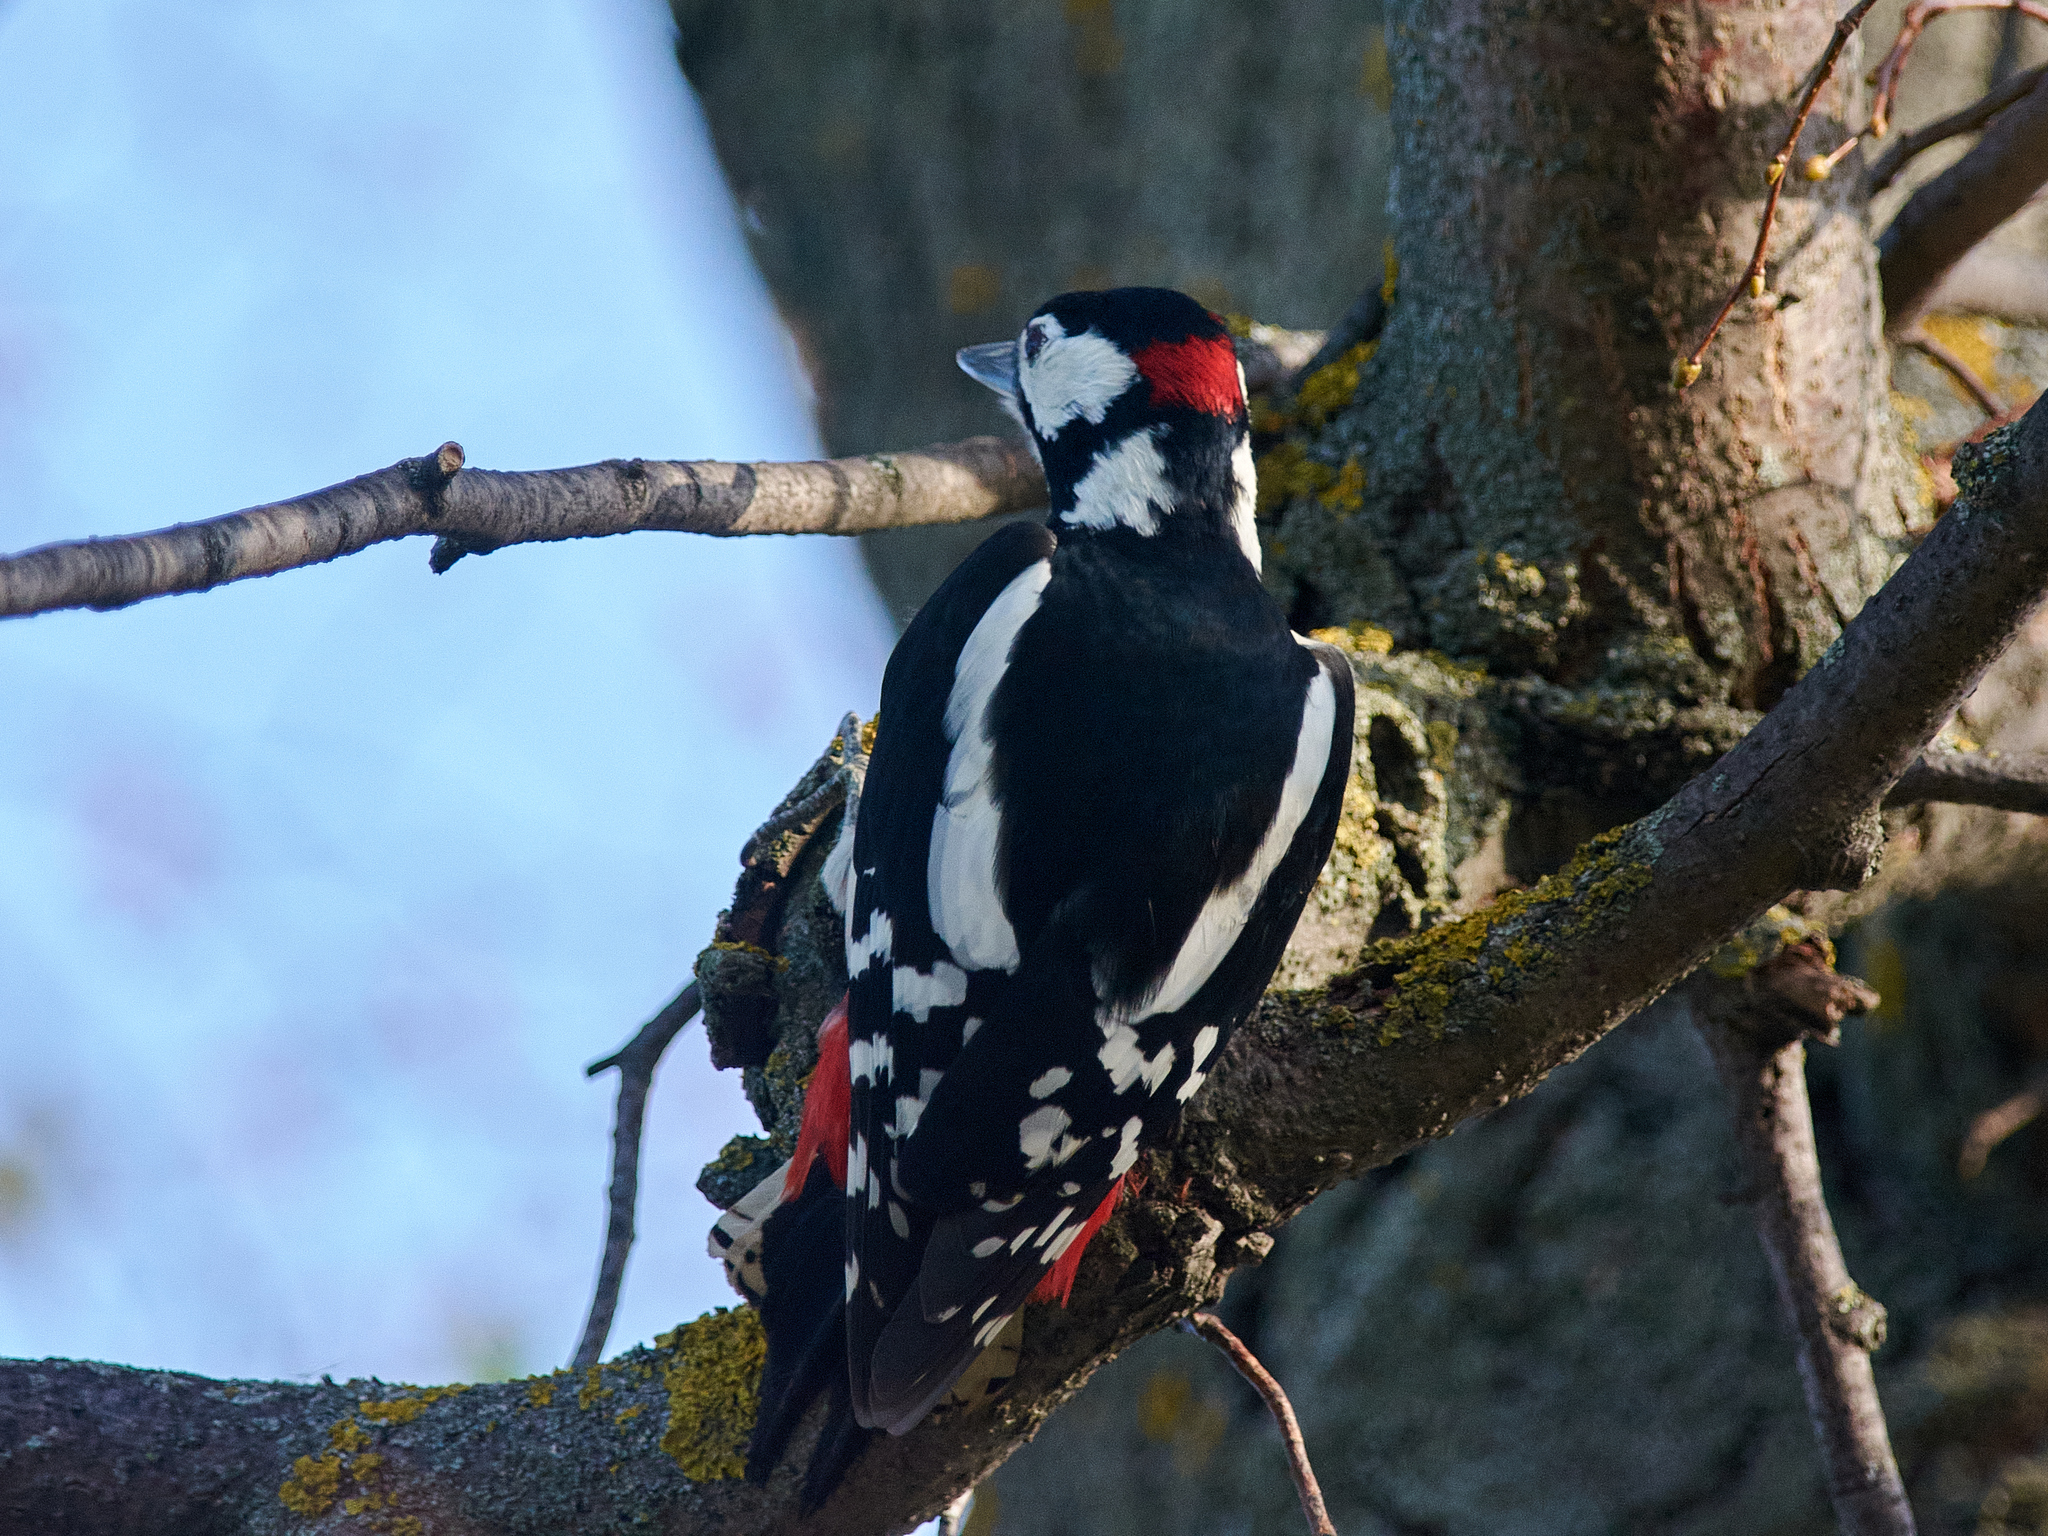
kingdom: Animalia
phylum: Chordata
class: Aves
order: Piciformes
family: Picidae
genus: Dendrocopos
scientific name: Dendrocopos major
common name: Great spotted woodpecker
